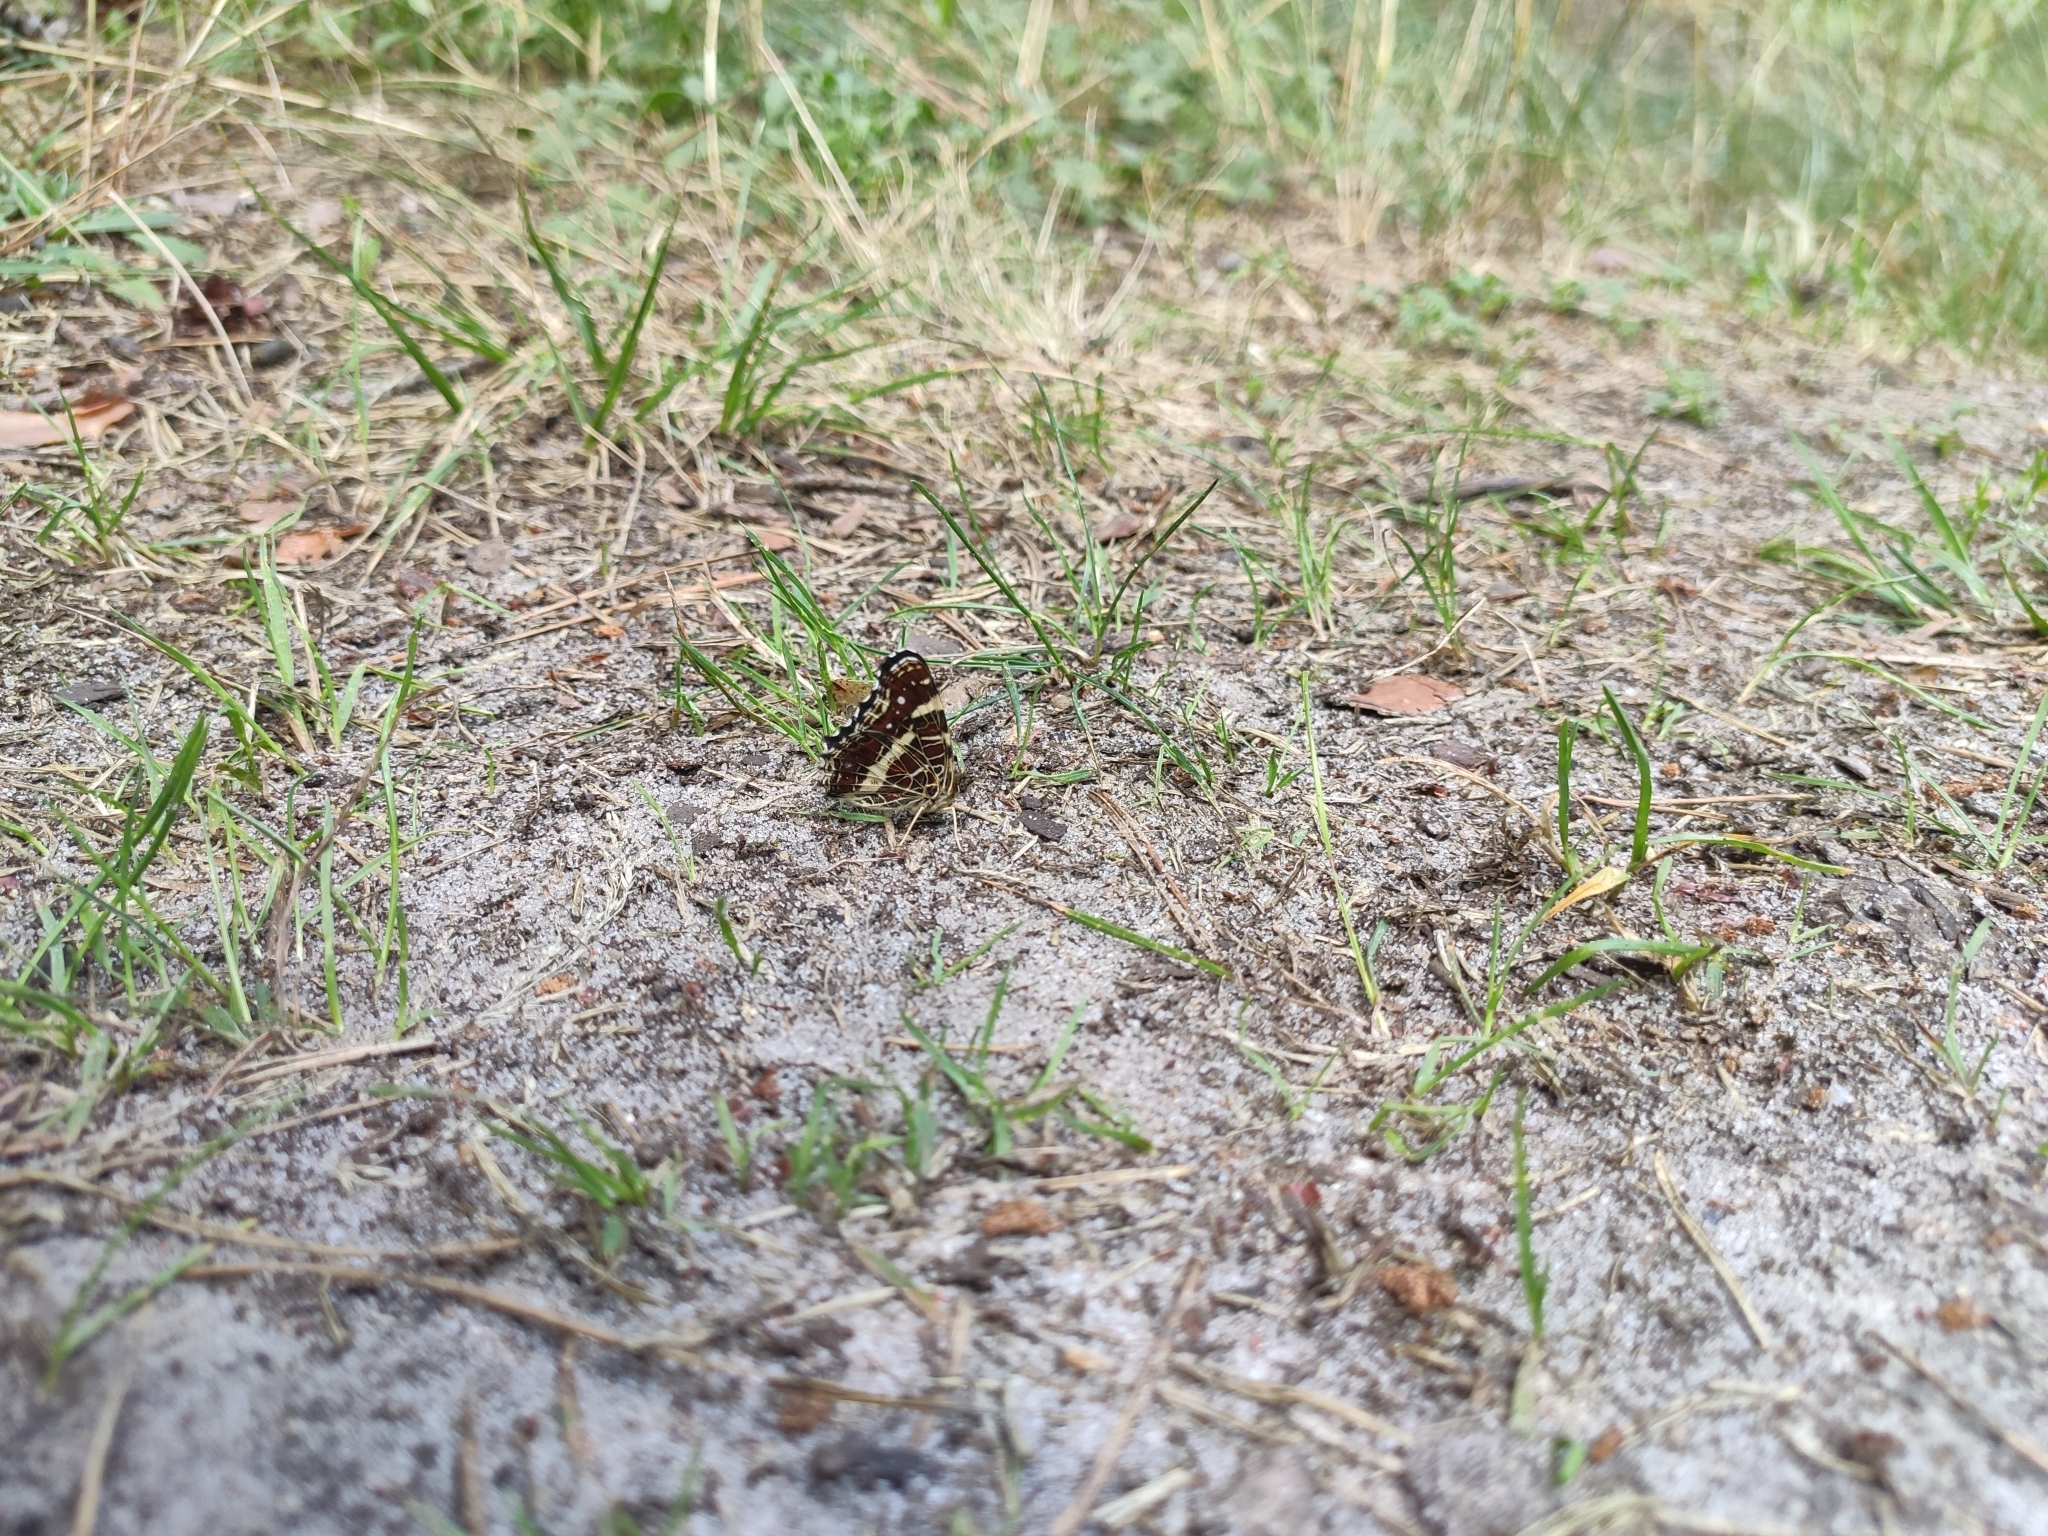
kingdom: Animalia
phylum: Arthropoda
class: Insecta
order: Lepidoptera
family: Nymphalidae
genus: Araschnia
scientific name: Araschnia levana
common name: Map butterfly
